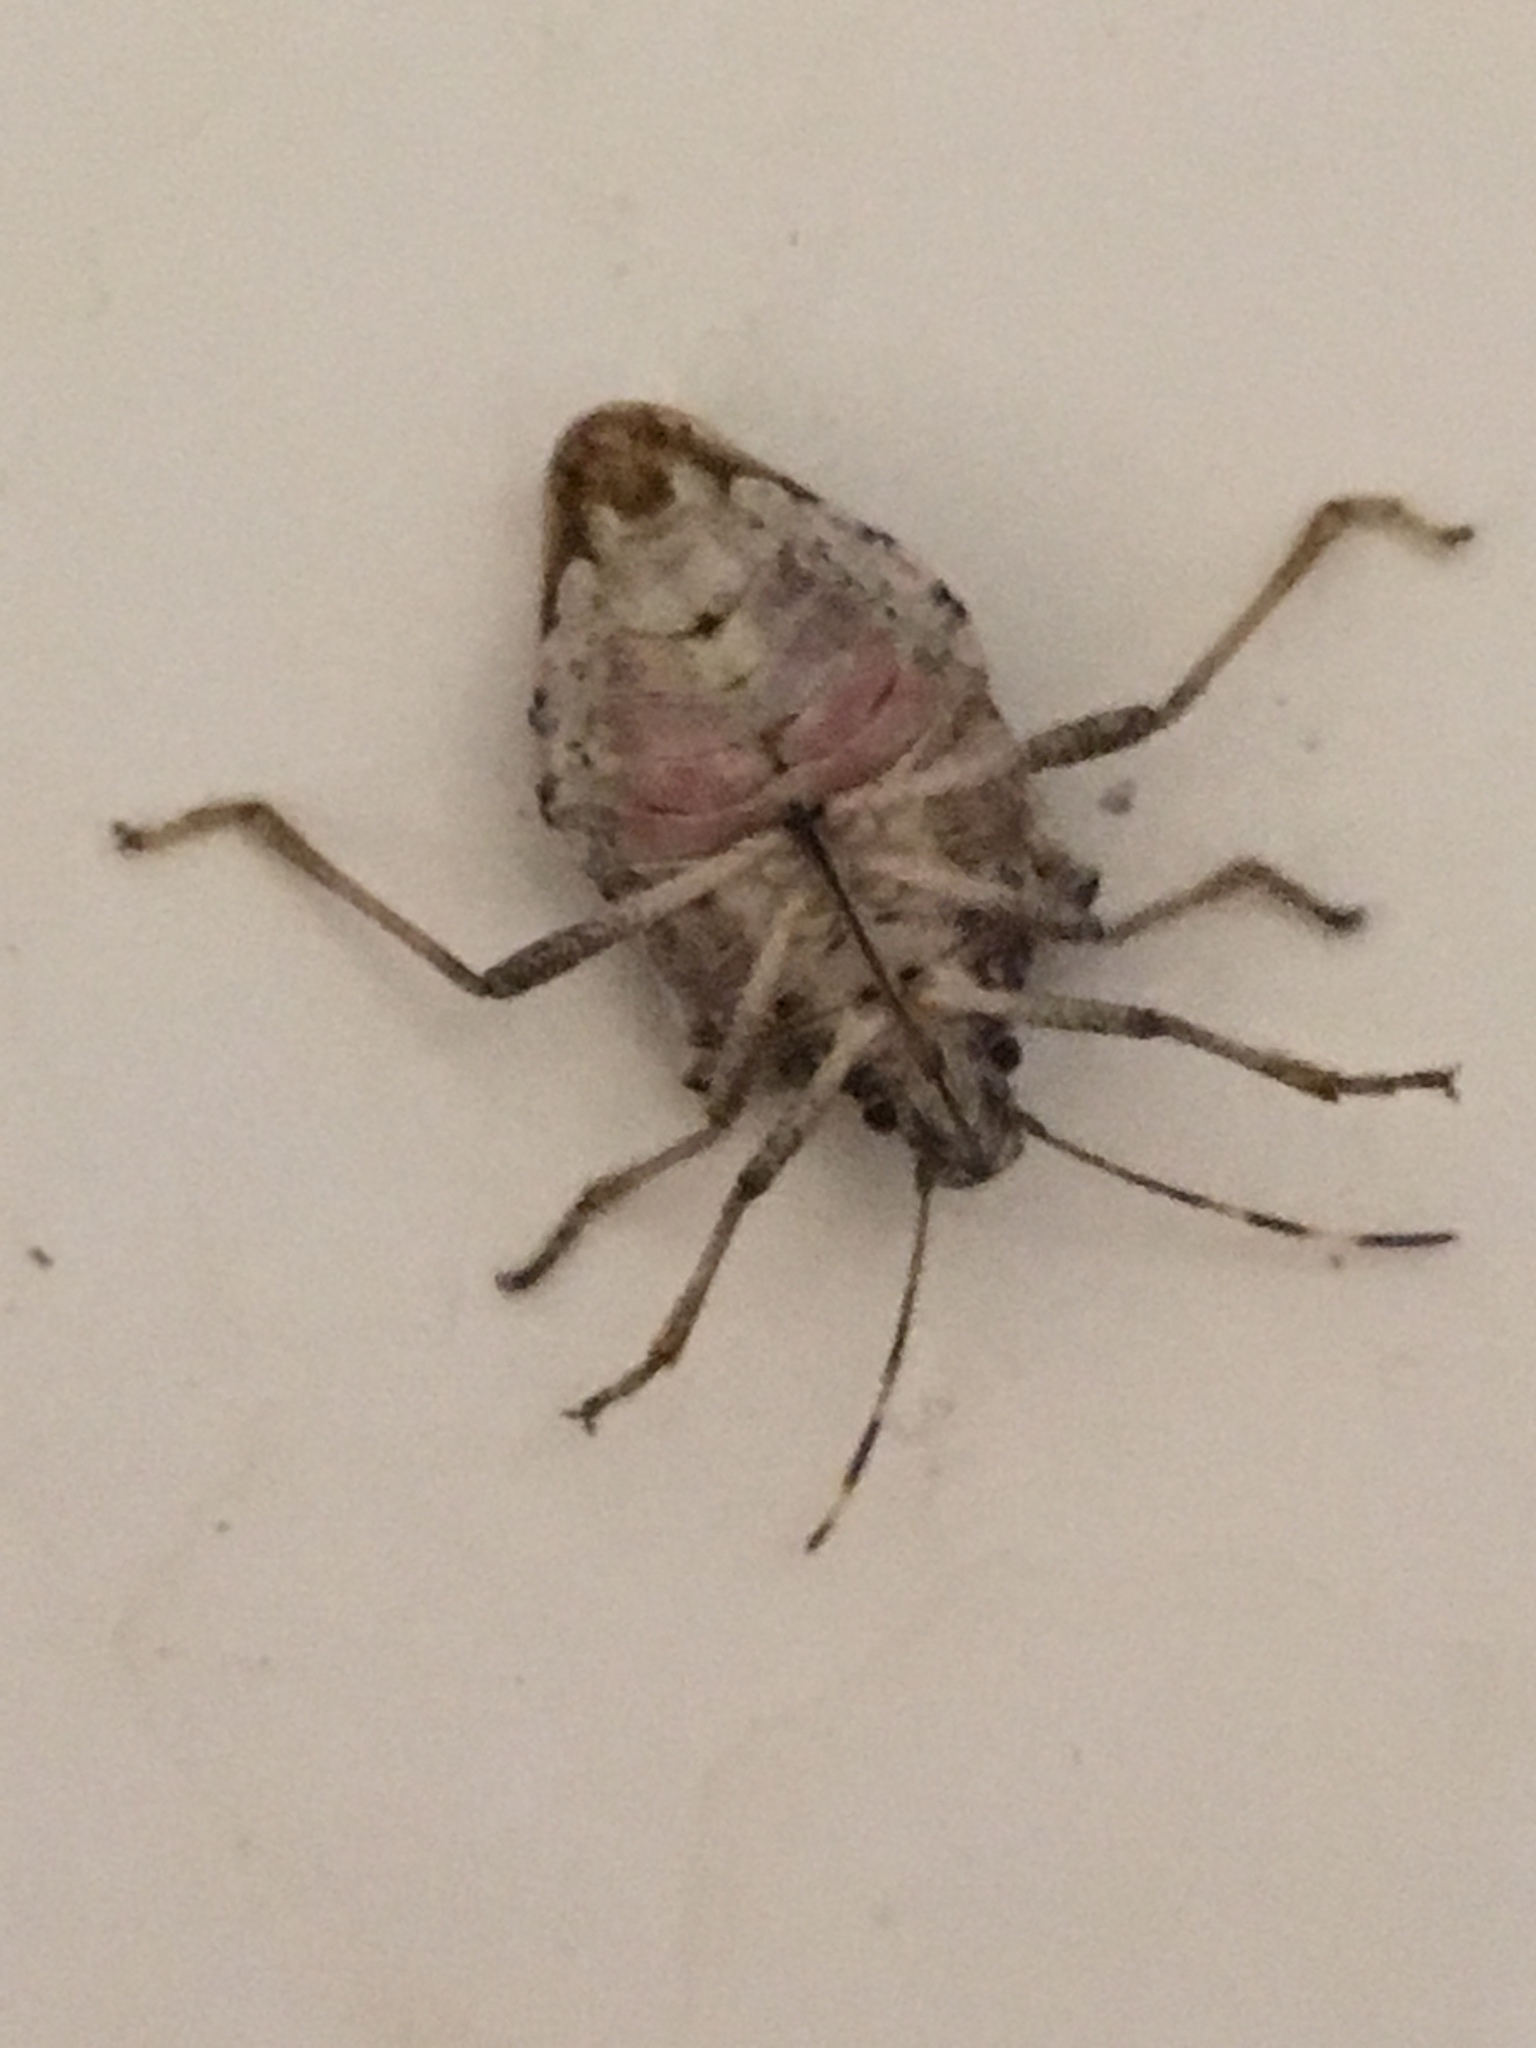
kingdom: Animalia
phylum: Arthropoda
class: Insecta
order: Hemiptera
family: Pentatomidae
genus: Halyomorpha
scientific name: Halyomorpha halys
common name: Brown marmorated stink bug
